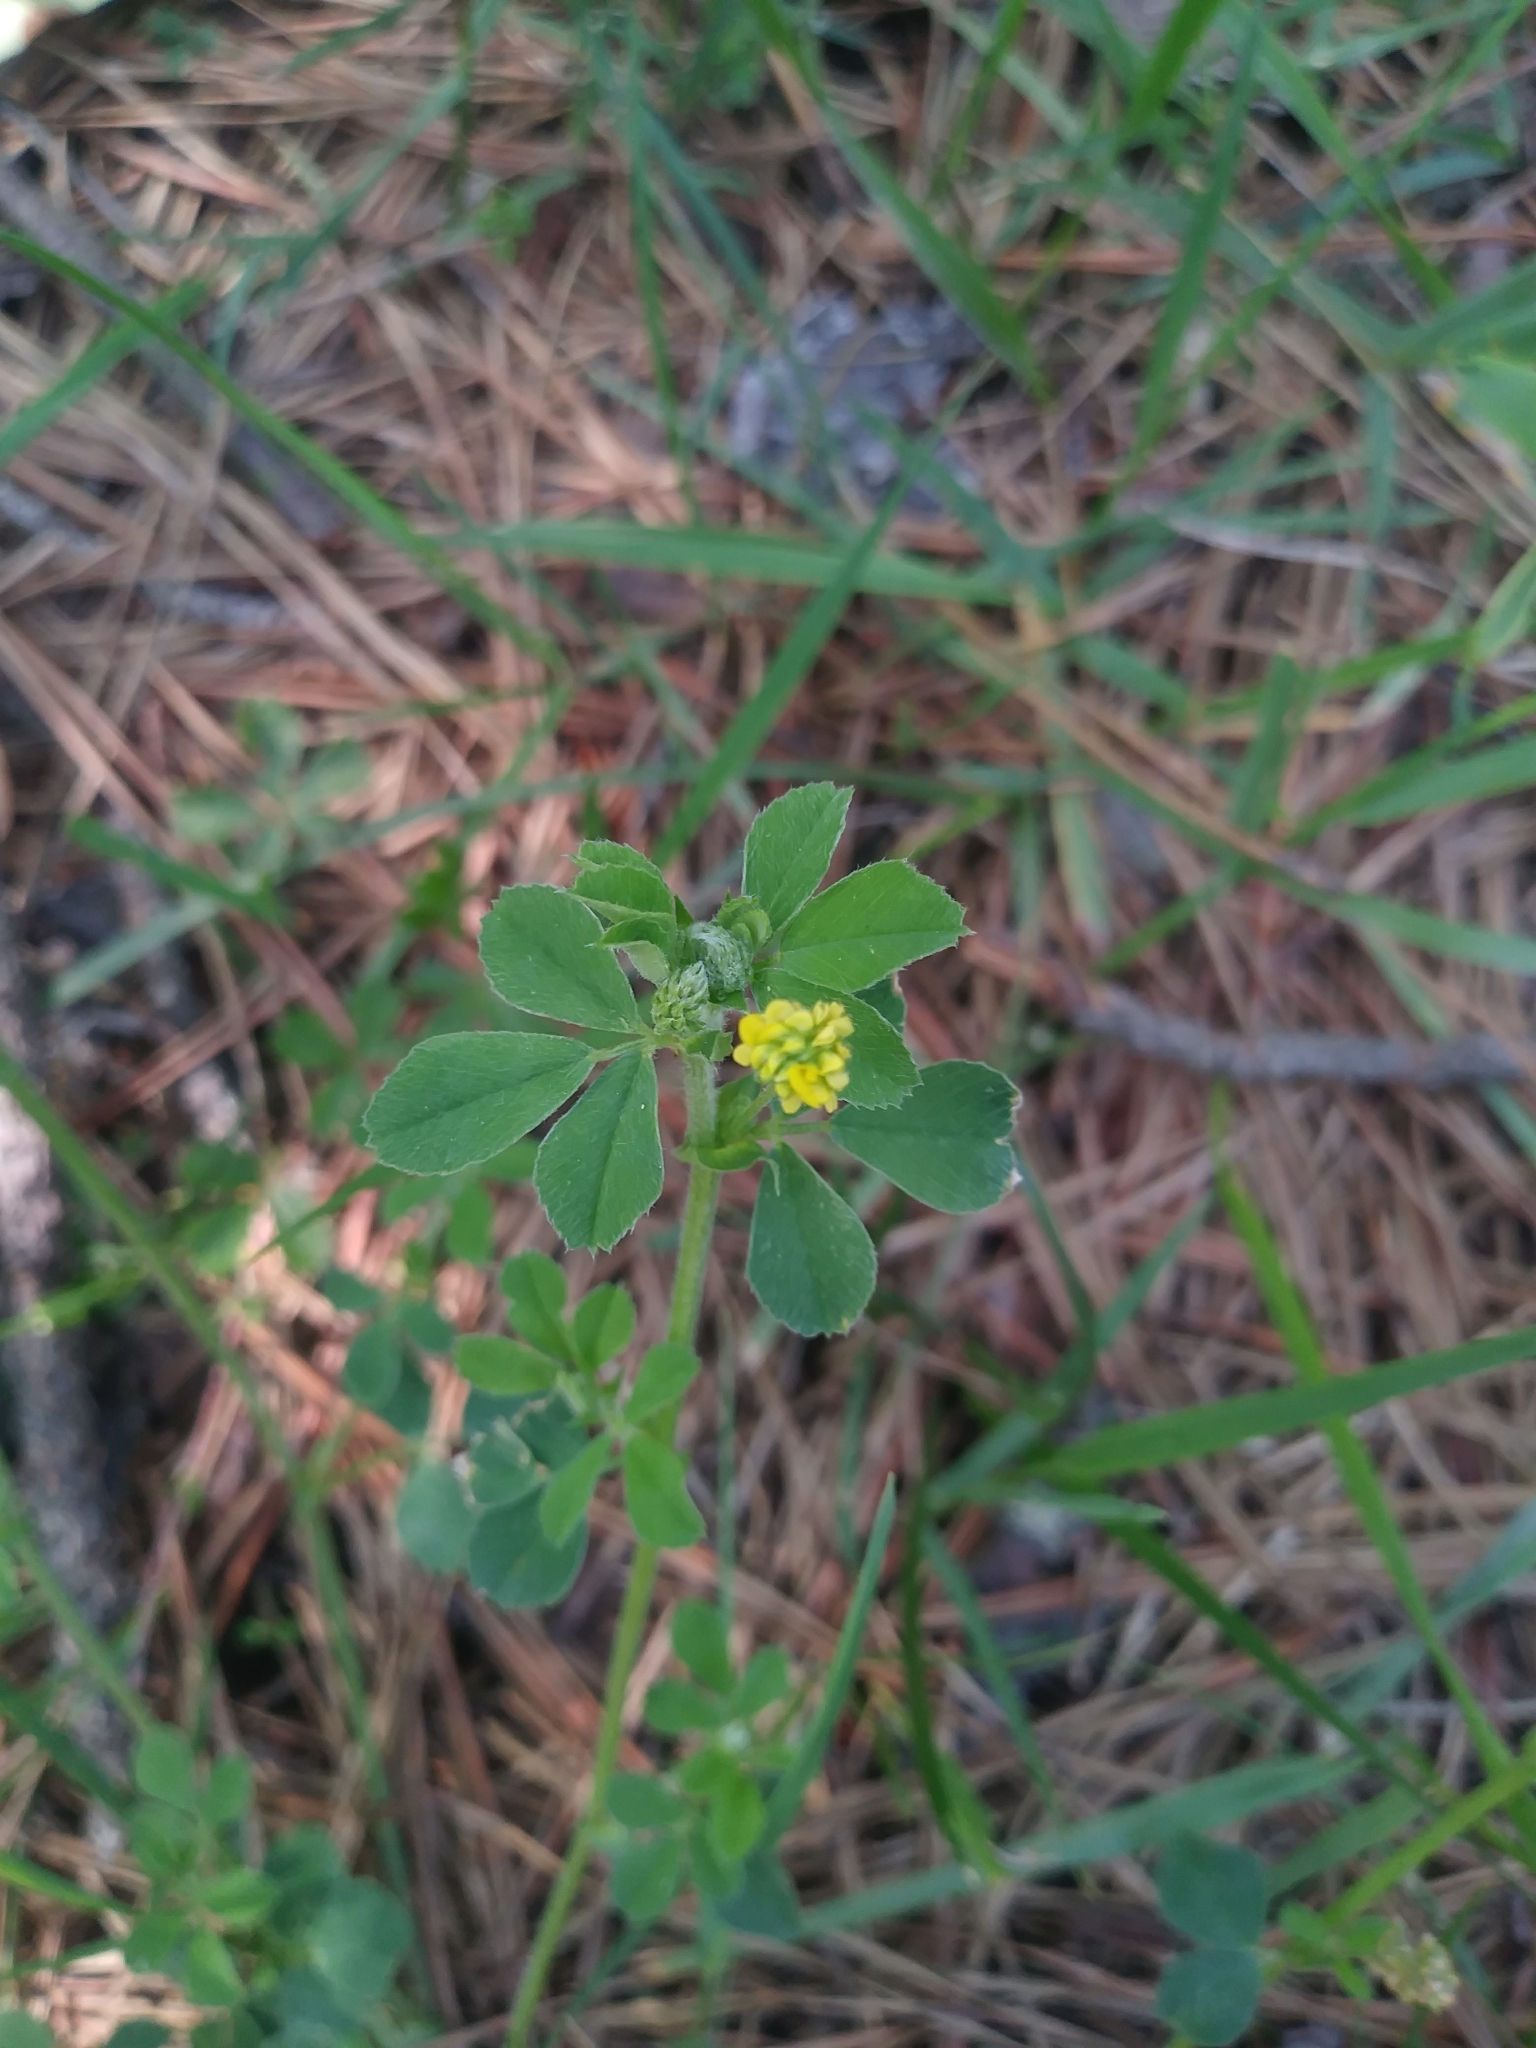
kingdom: Plantae
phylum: Tracheophyta
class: Magnoliopsida
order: Fabales
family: Fabaceae
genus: Medicago
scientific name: Medicago lupulina
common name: Black medick
